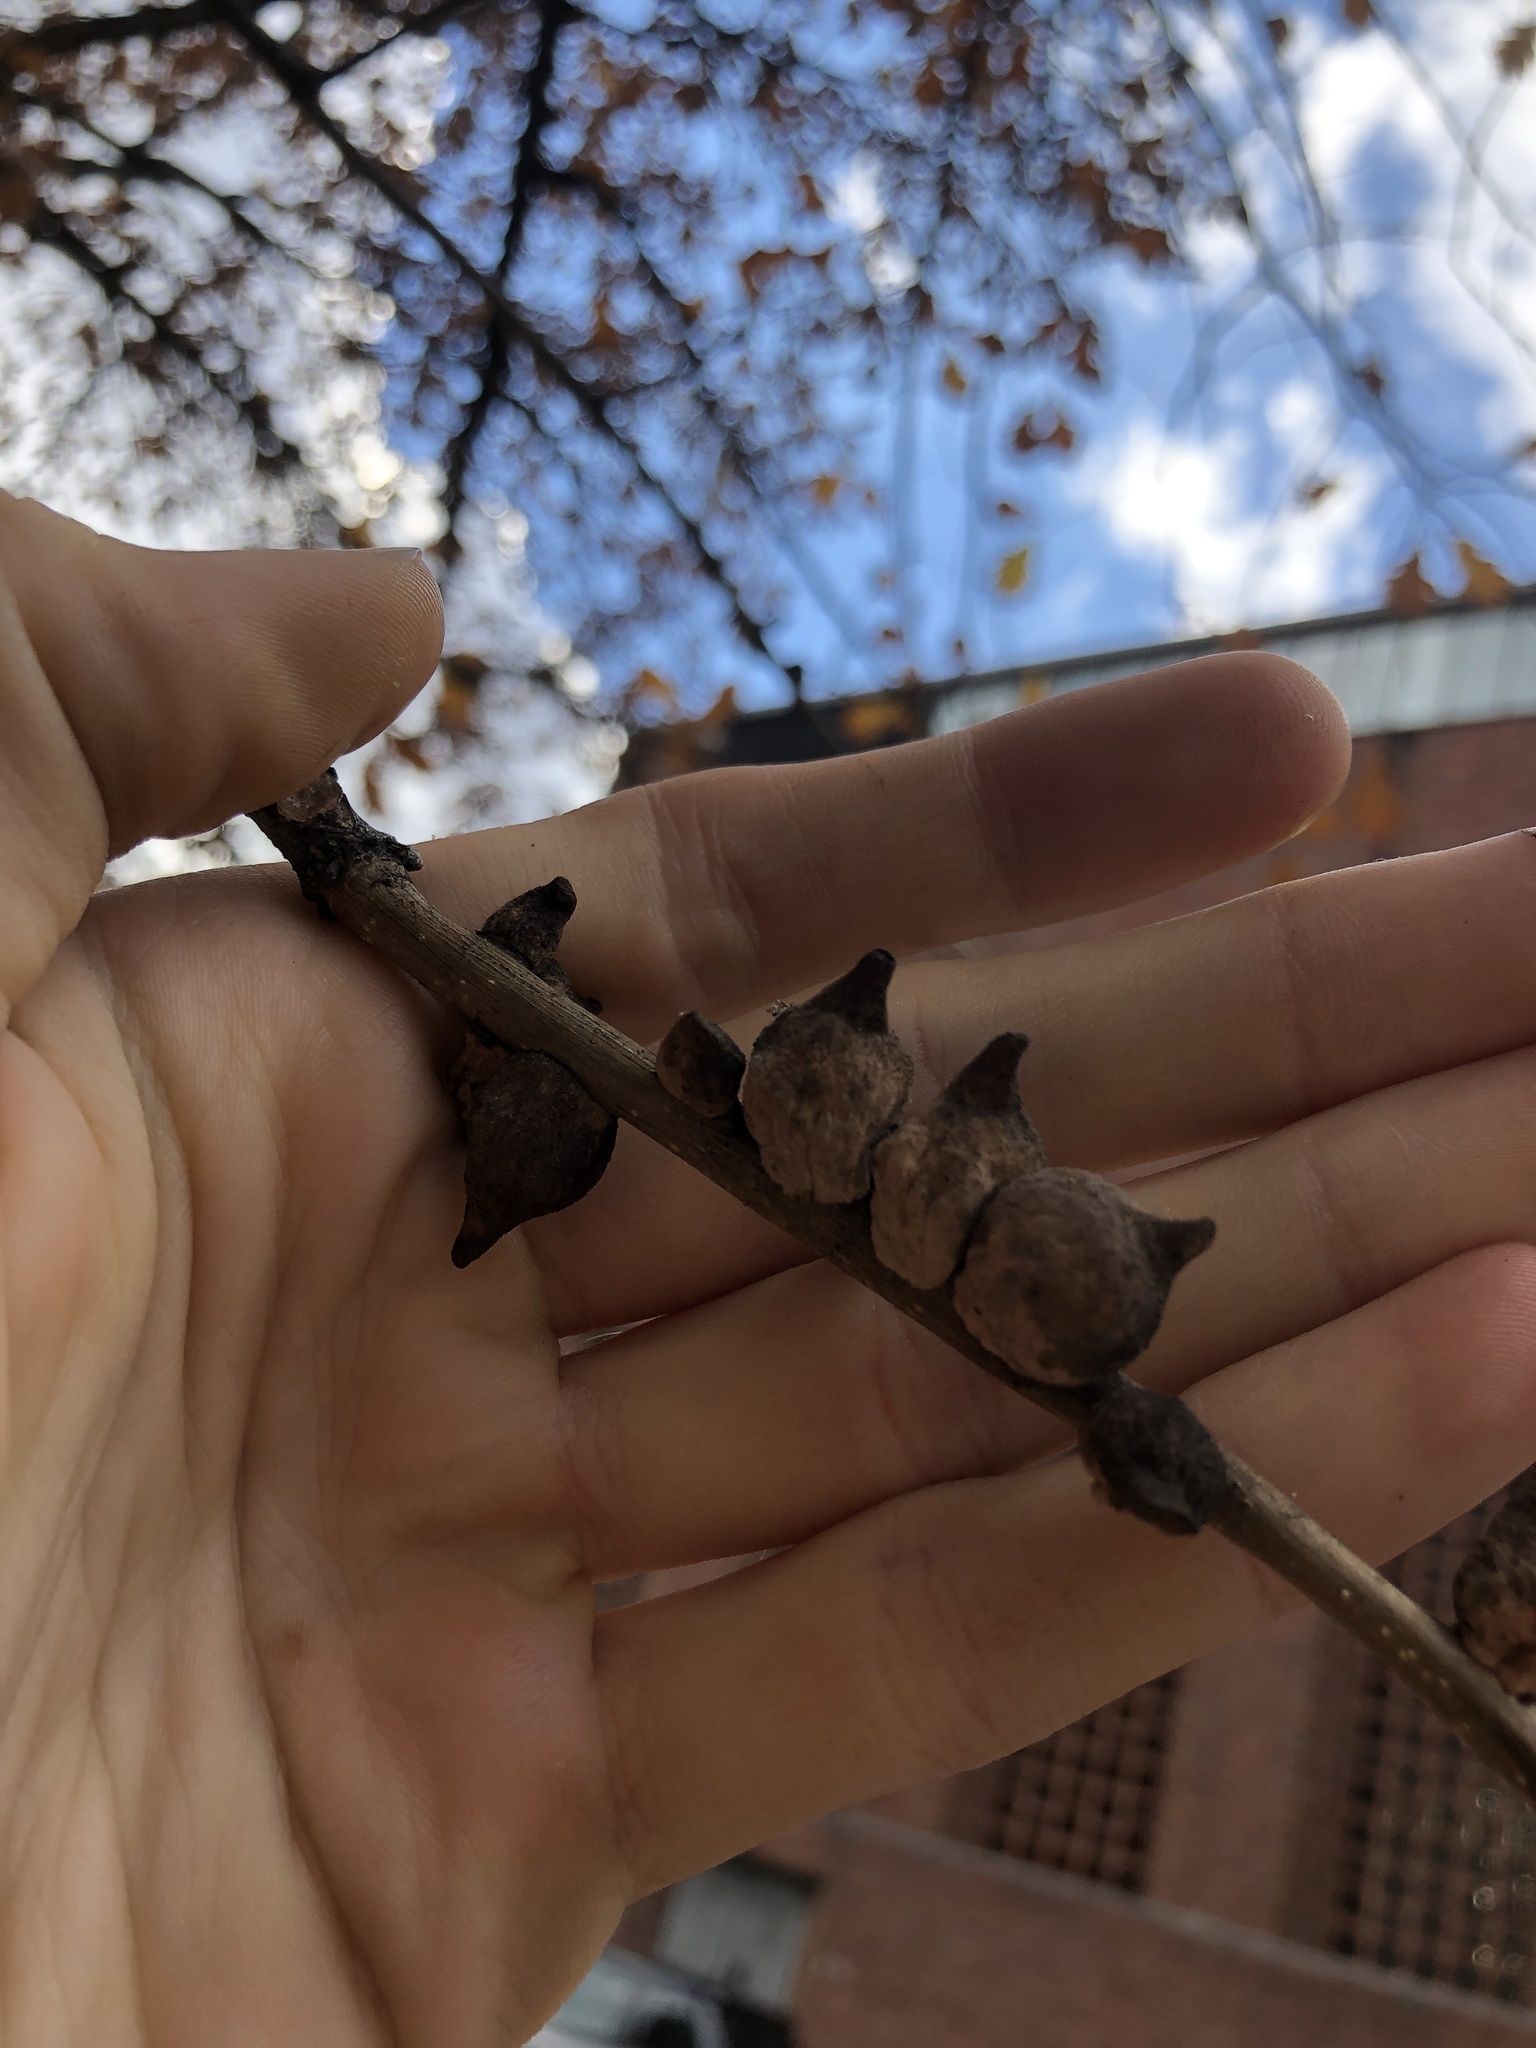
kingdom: Animalia
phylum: Arthropoda
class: Insecta
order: Hymenoptera
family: Cynipidae
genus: Disholcaspis
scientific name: Disholcaspis
